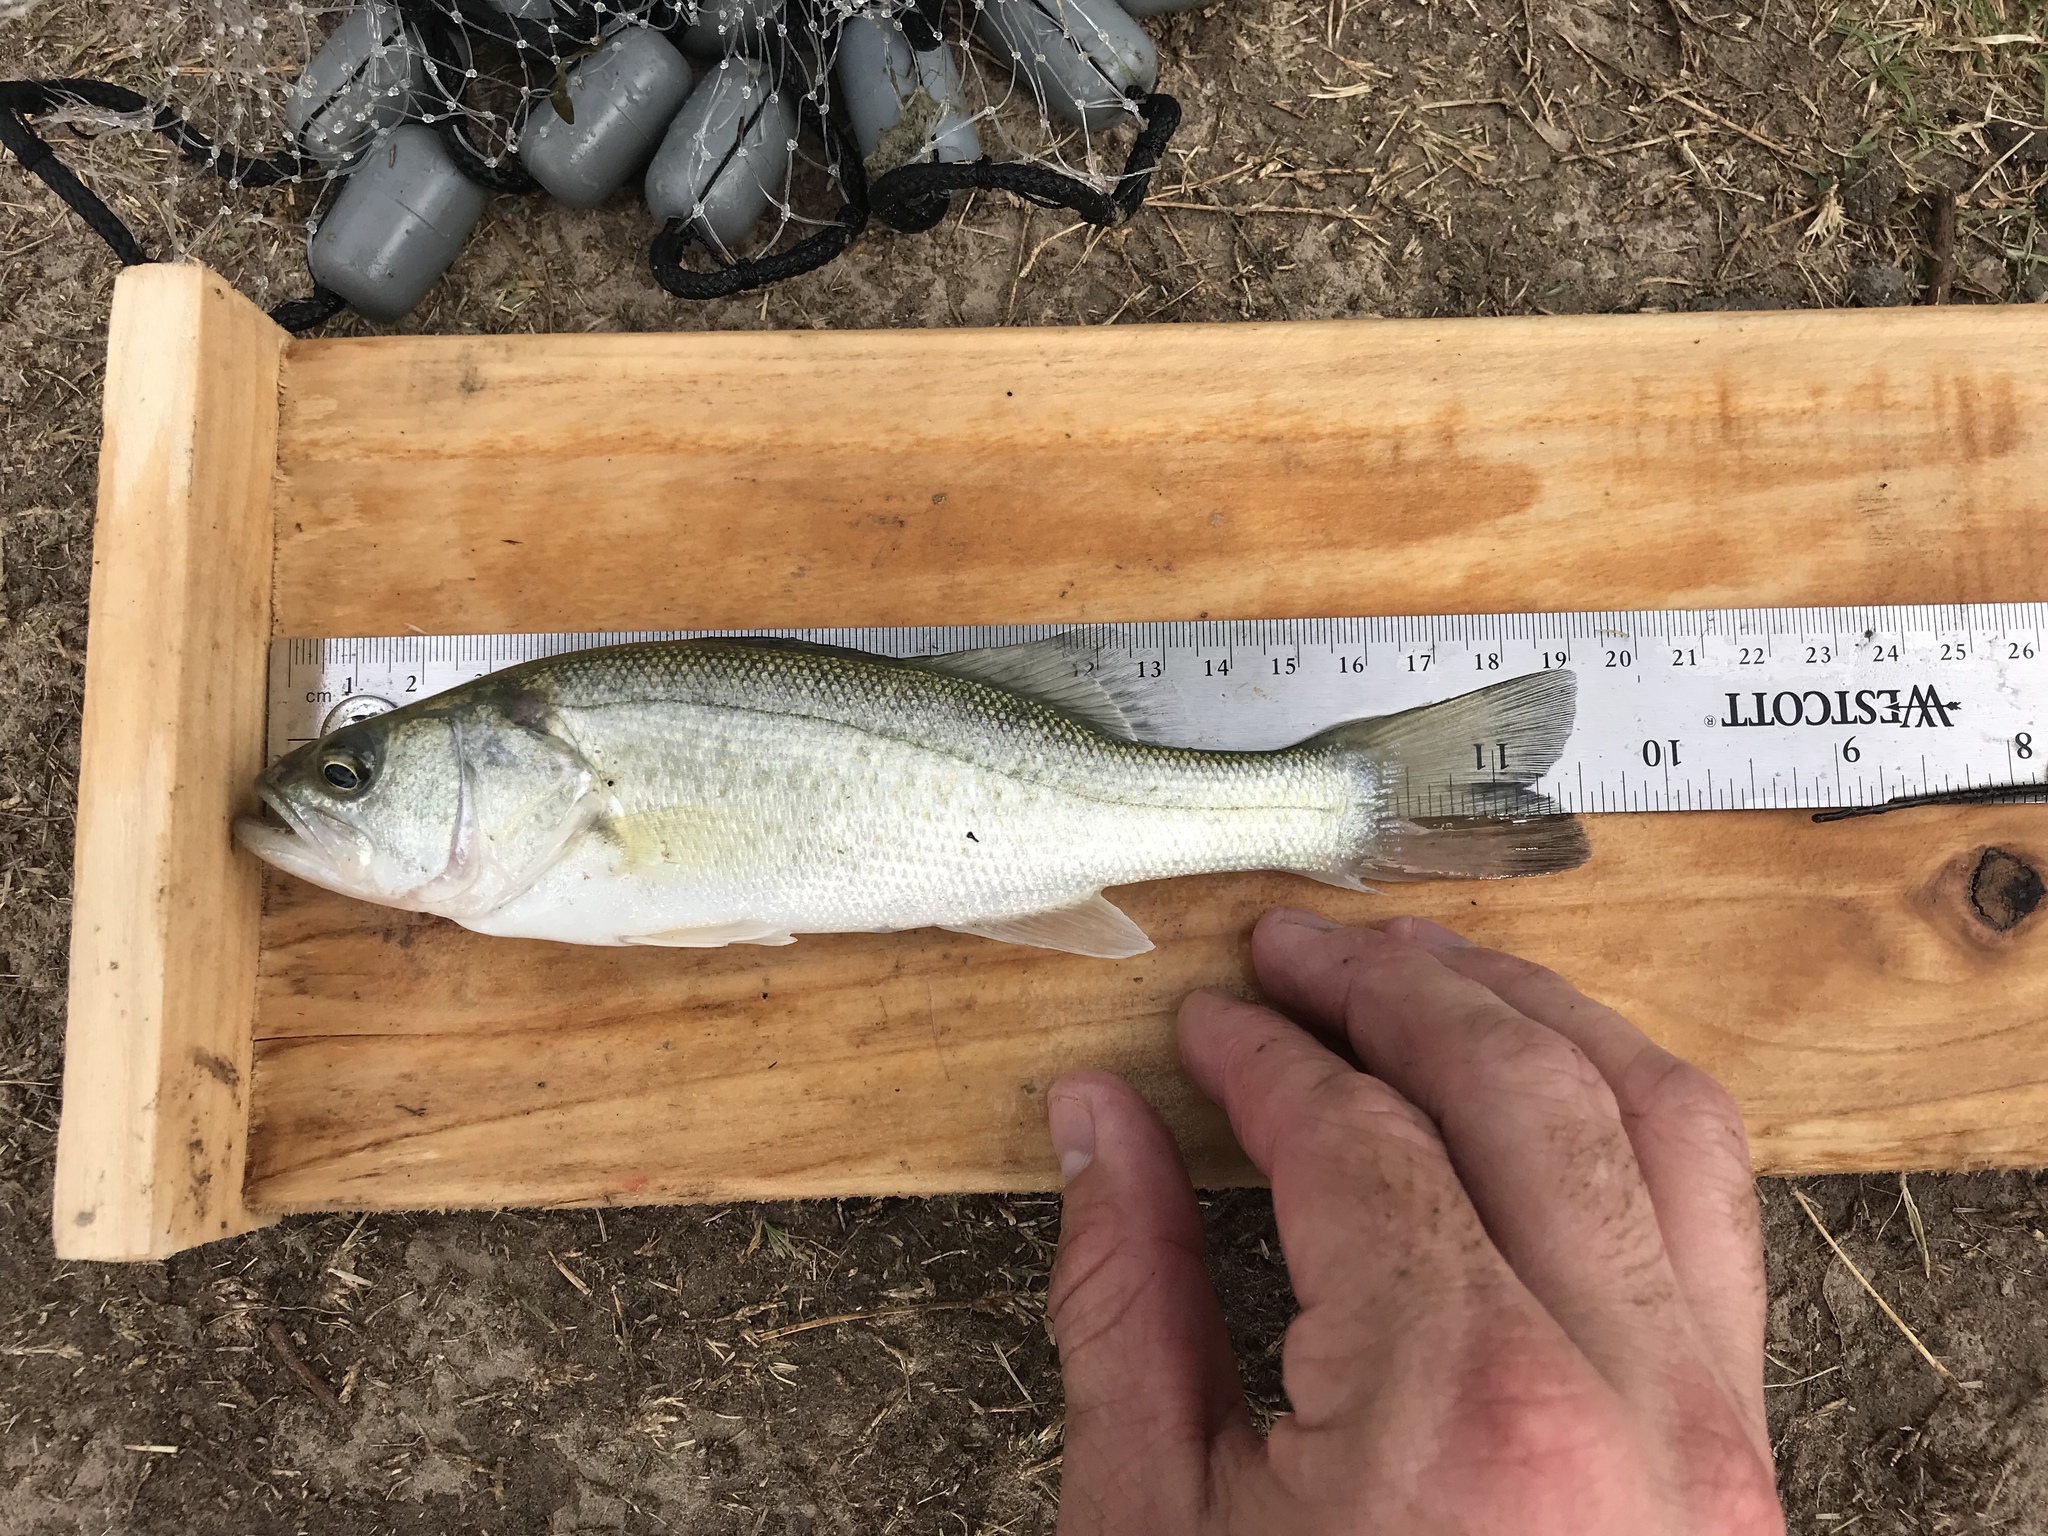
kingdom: Animalia
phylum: Chordata
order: Perciformes
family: Centrarchidae
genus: Micropterus
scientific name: Micropterus
